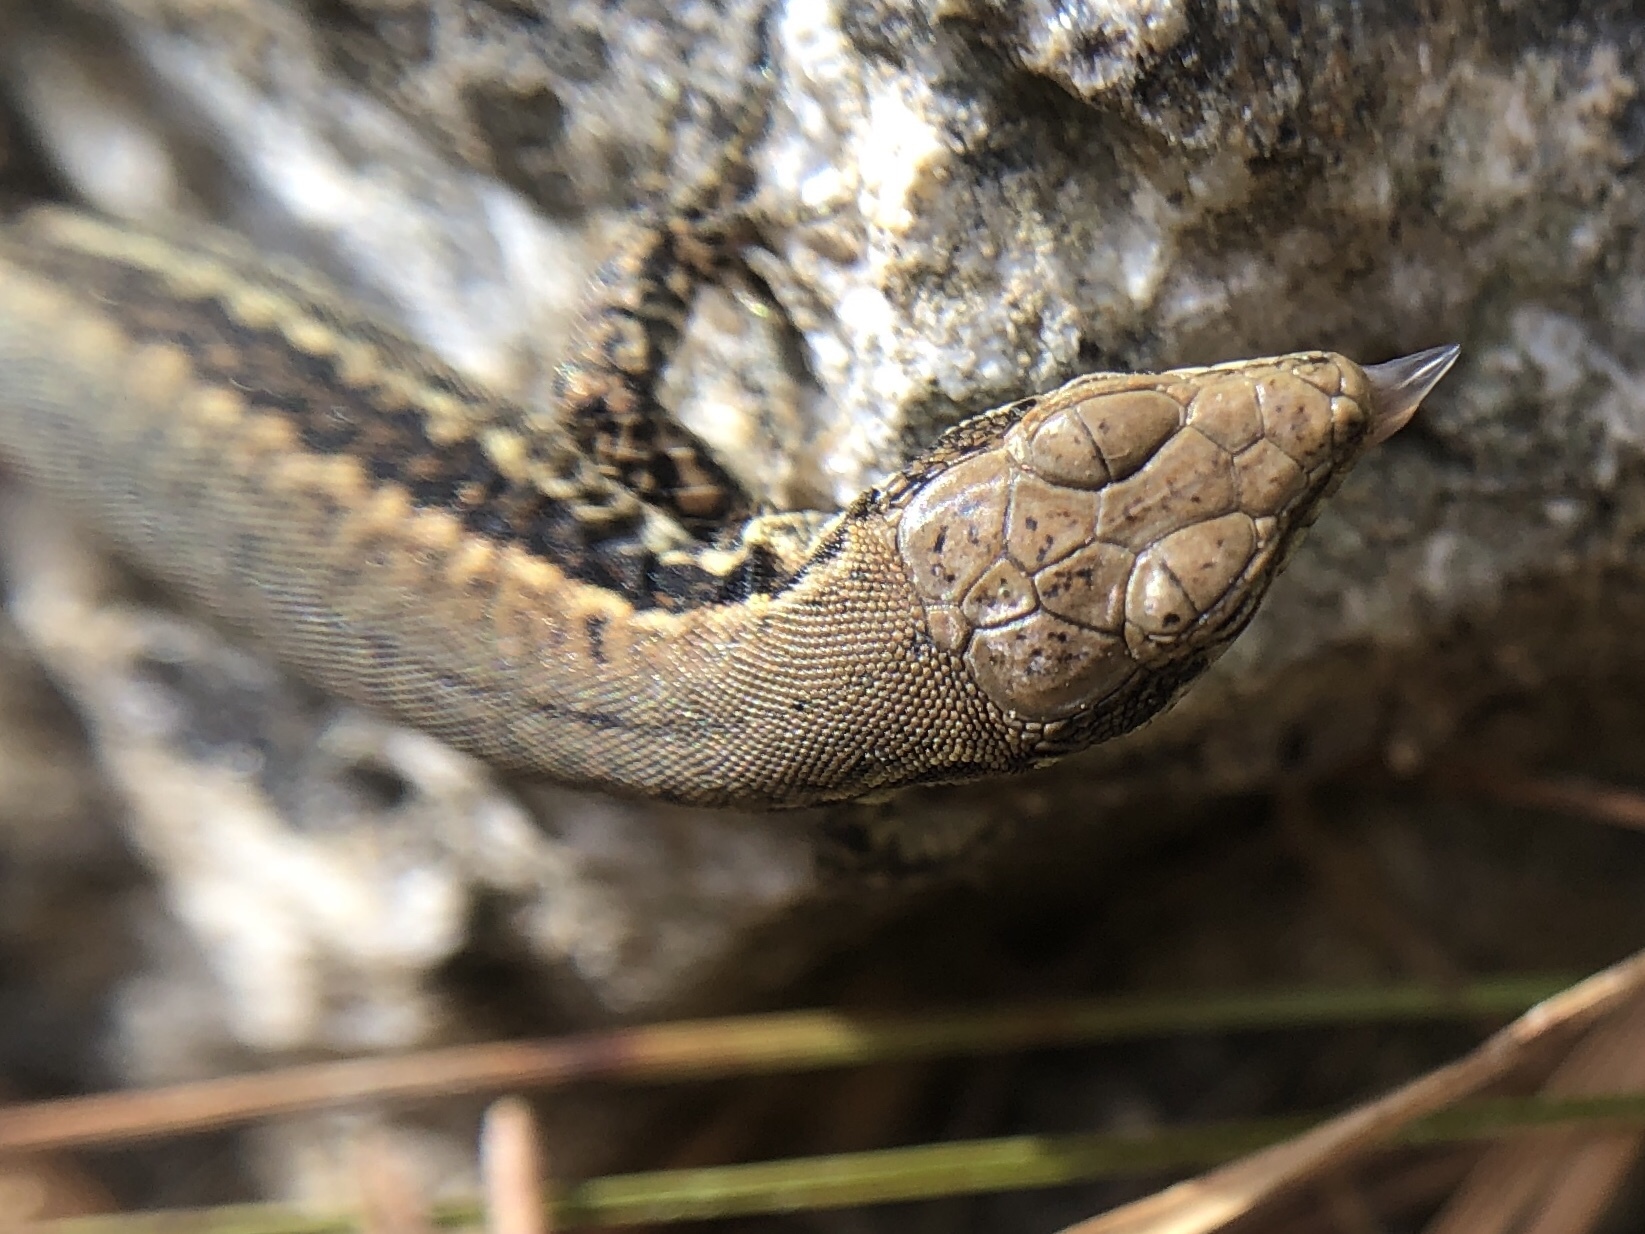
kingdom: Animalia
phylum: Chordata
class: Squamata
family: Lacertidae
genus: Podarcis
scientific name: Podarcis muralis
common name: Common wall lizard
